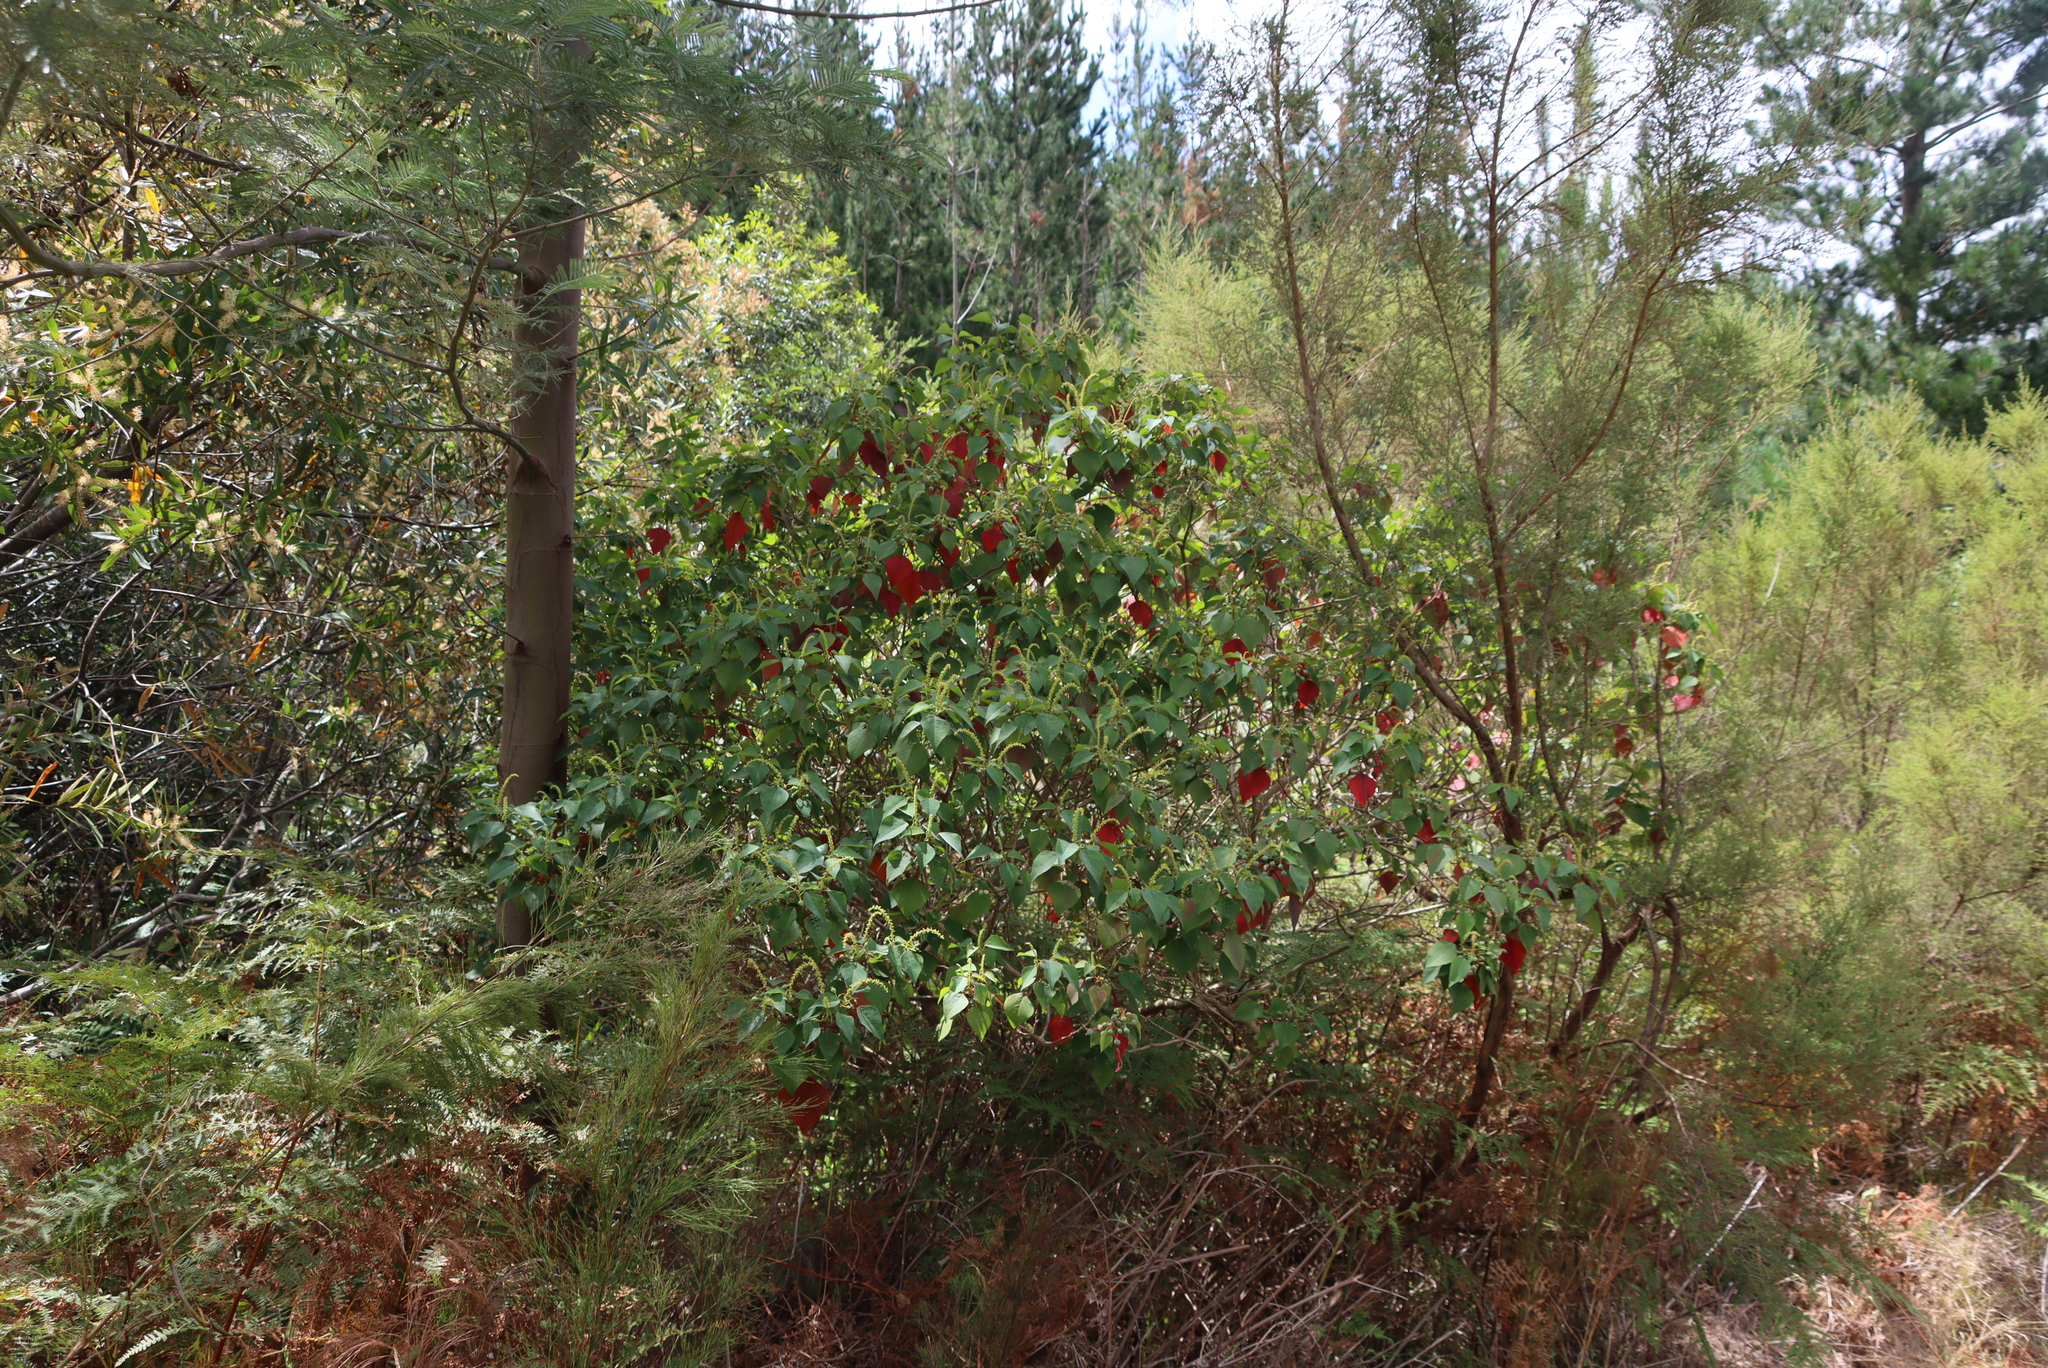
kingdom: Plantae
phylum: Tracheophyta
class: Magnoliopsida
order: Malpighiales
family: Euphorbiaceae
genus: Homalanthus
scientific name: Homalanthus populifolius
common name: Queensland poplar
